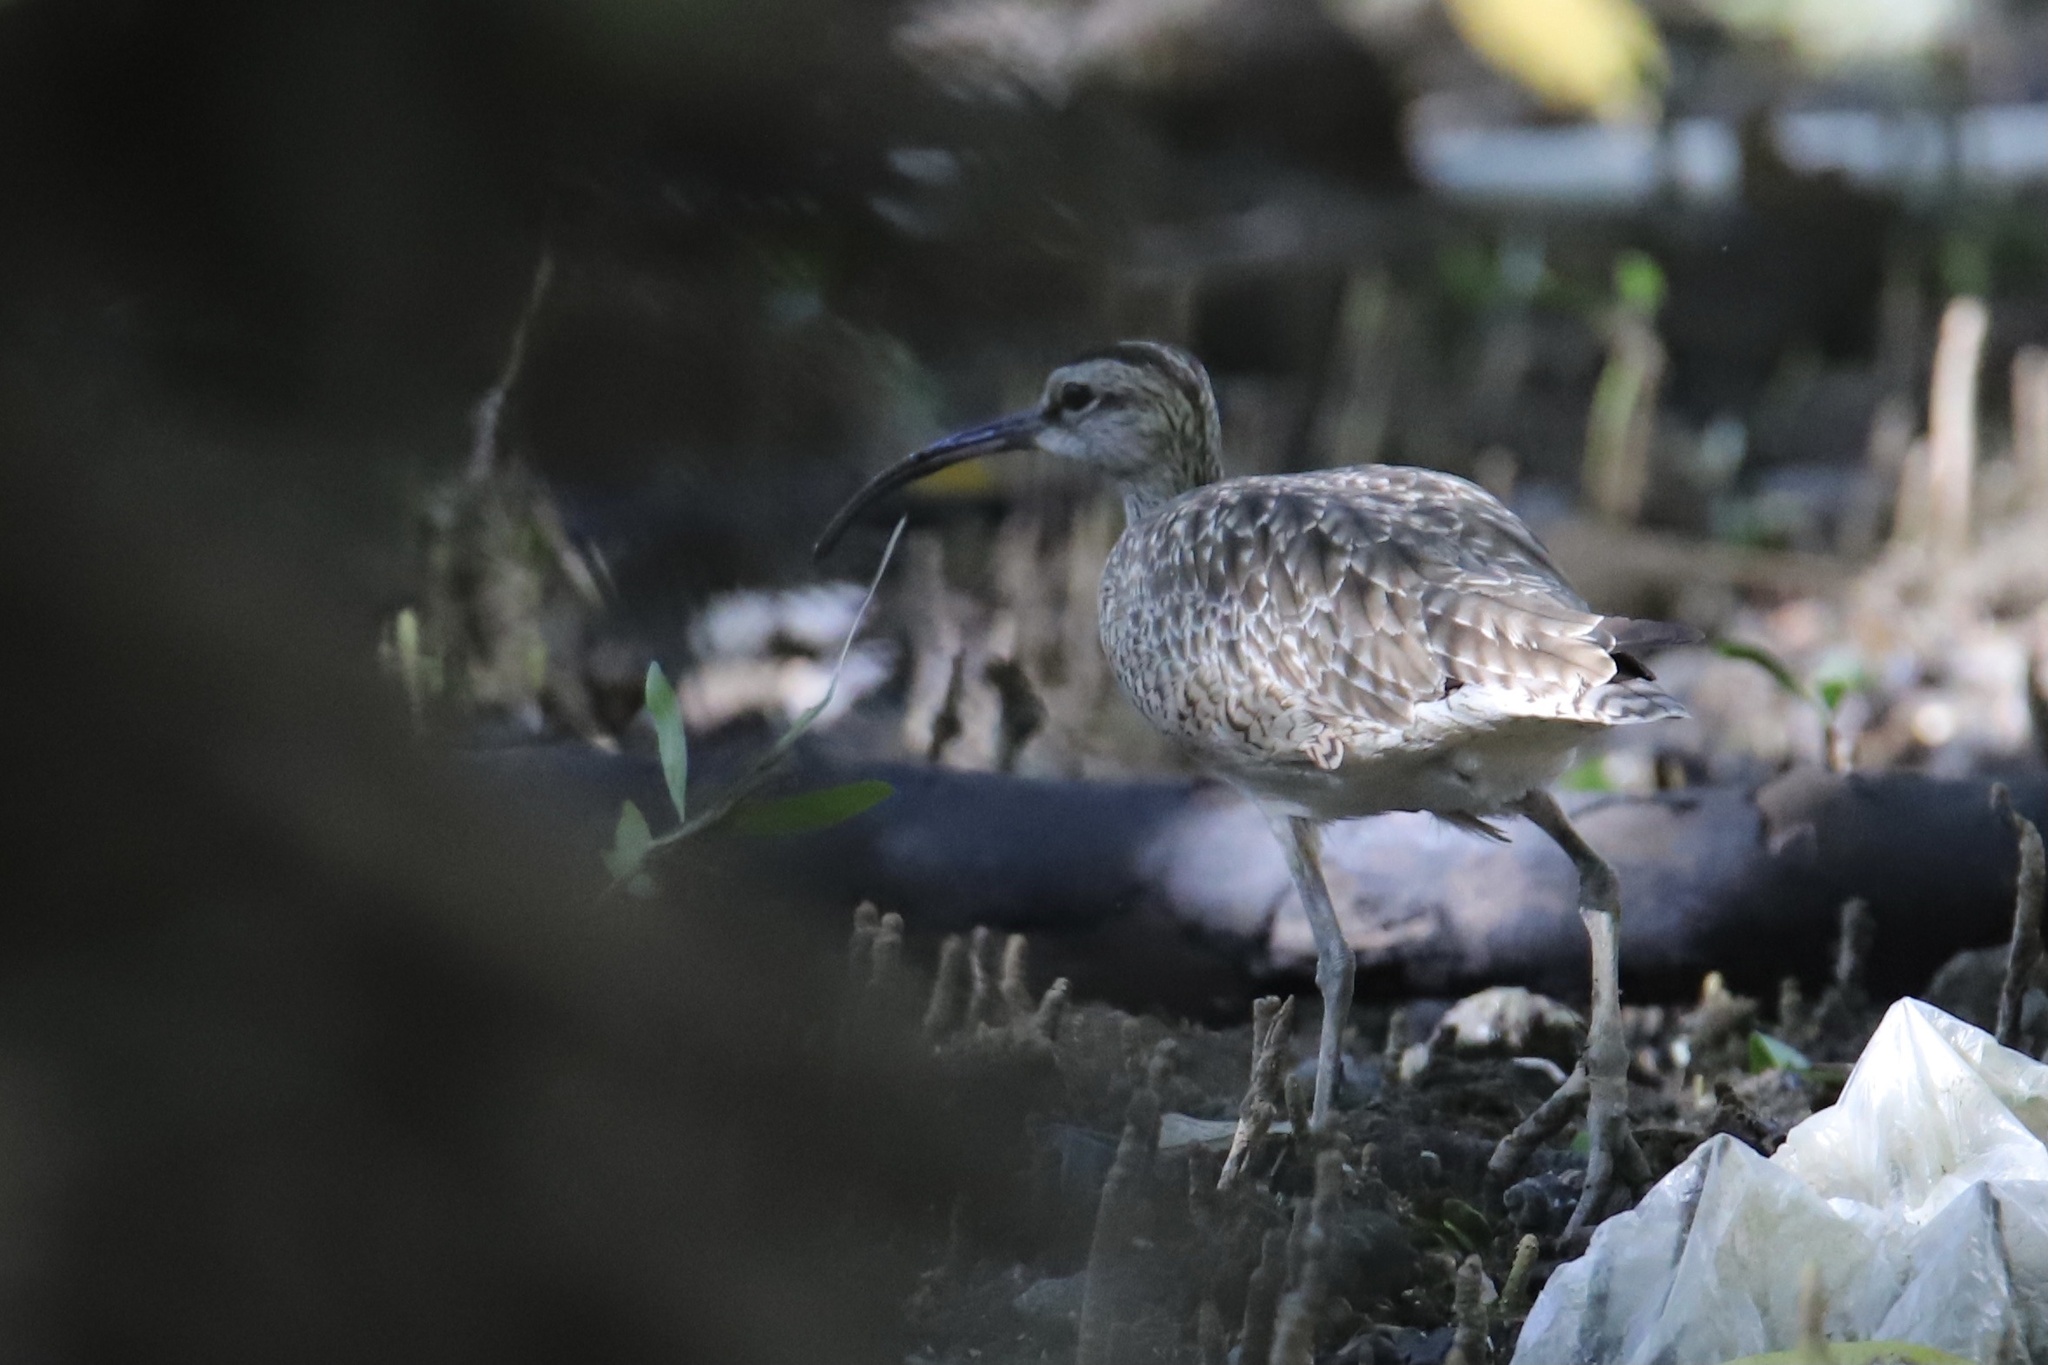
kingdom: Animalia
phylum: Chordata
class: Aves
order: Charadriiformes
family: Scolopacidae
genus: Numenius
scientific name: Numenius phaeopus
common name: Whimbrel
